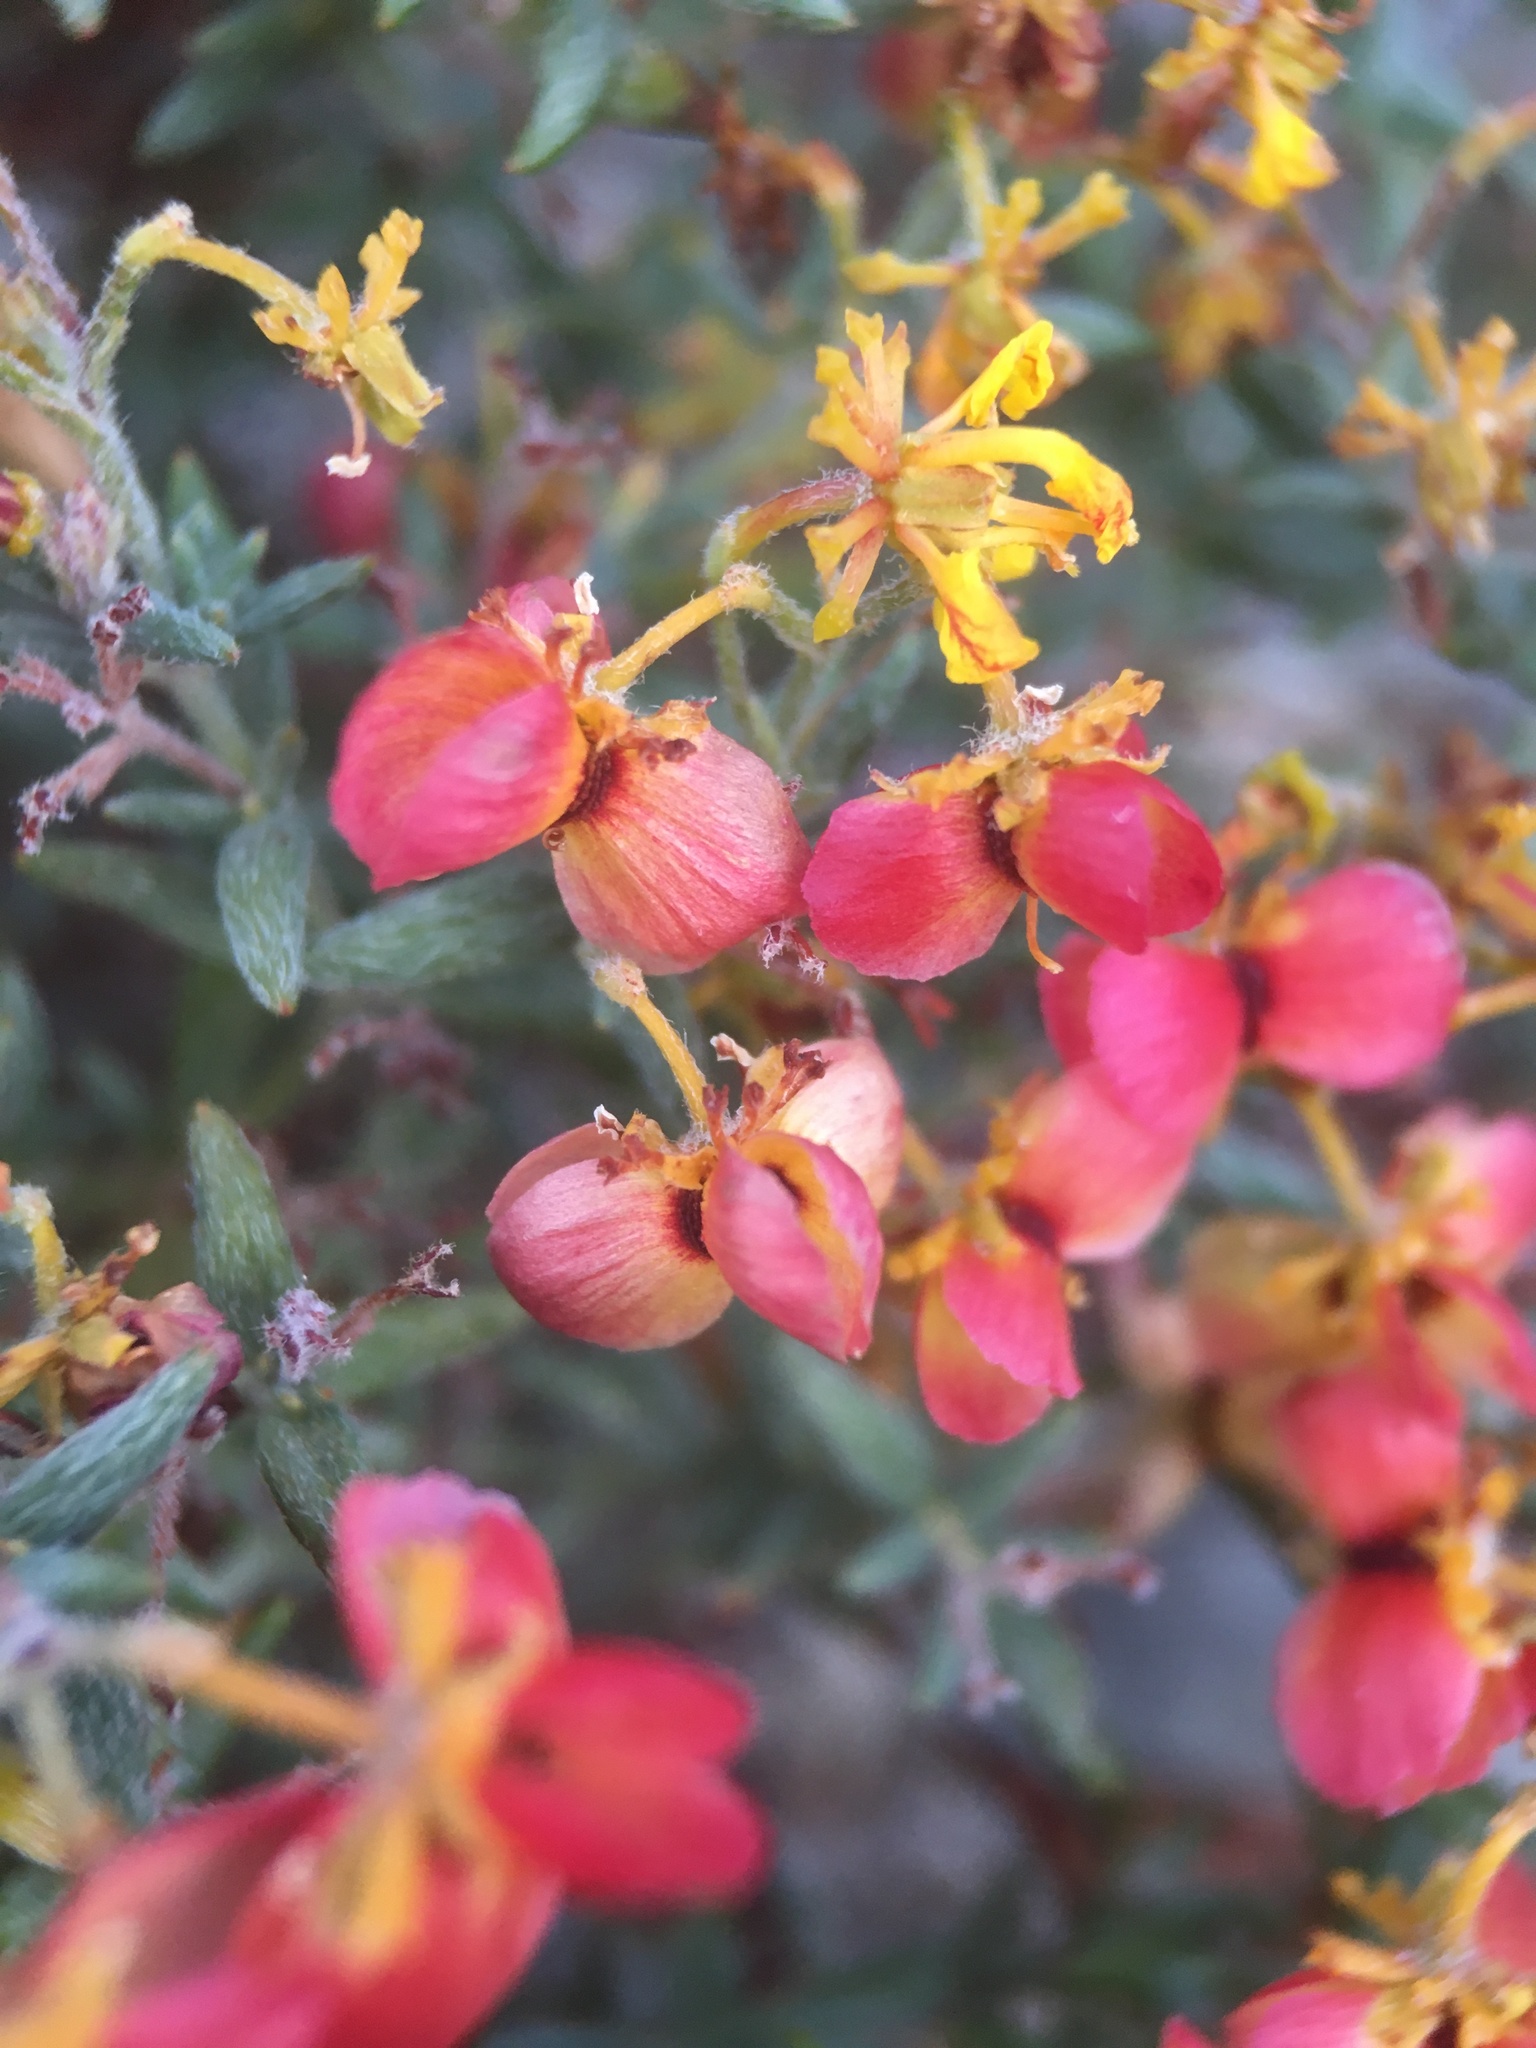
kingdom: Plantae
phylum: Tracheophyta
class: Magnoliopsida
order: Malpighiales
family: Malpighiaceae
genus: Dinemandra
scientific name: Dinemandra ericoides
